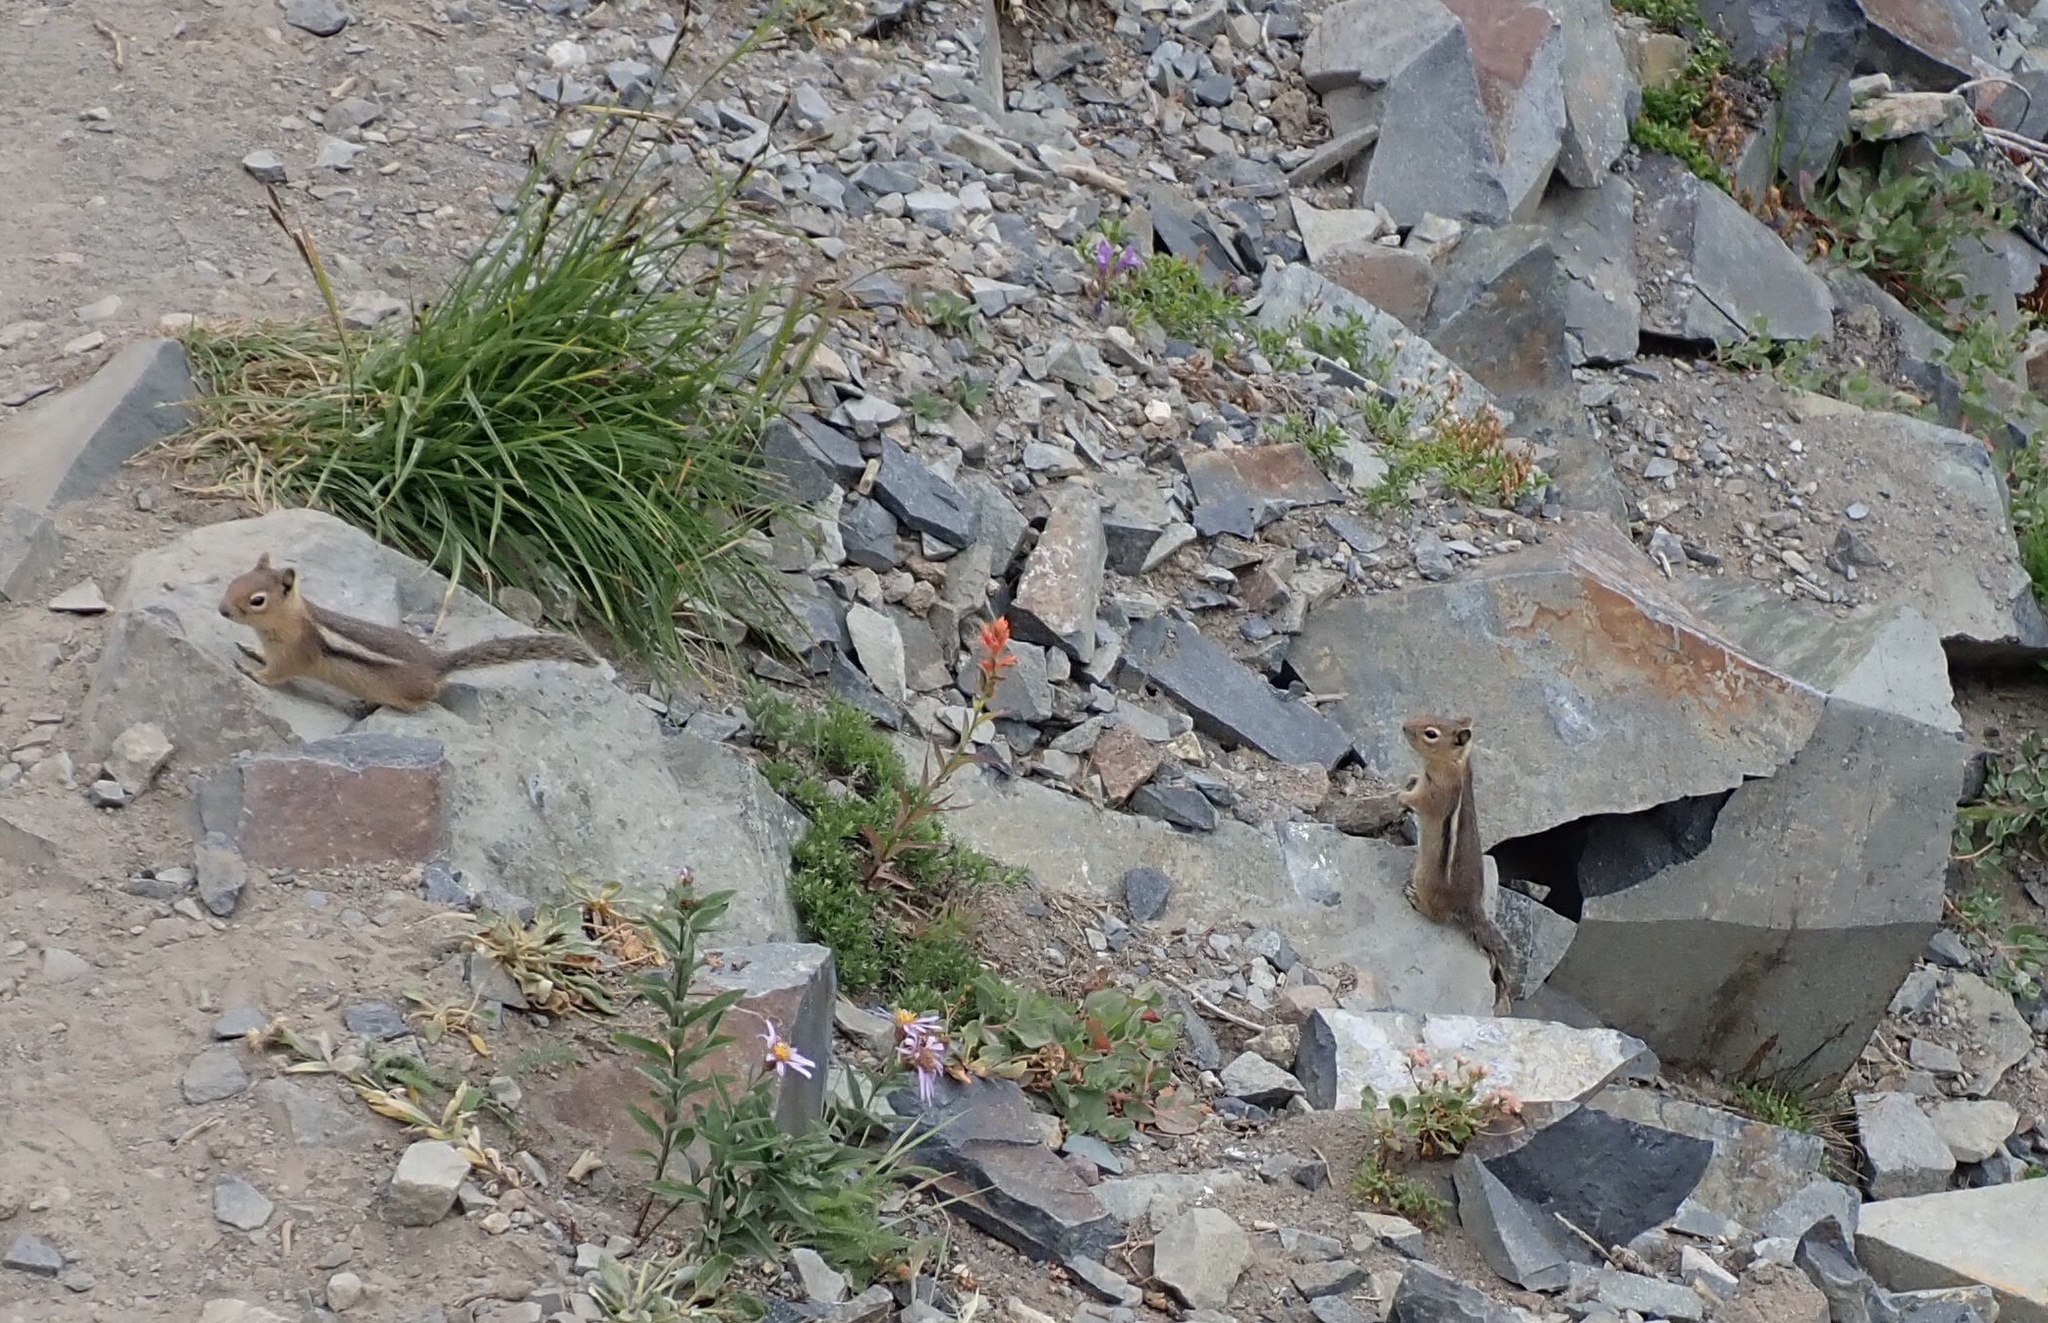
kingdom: Animalia
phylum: Chordata
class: Mammalia
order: Rodentia
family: Sciuridae
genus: Callospermophilus
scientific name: Callospermophilus saturatus
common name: Cascade golden-mantled ground squirrel
